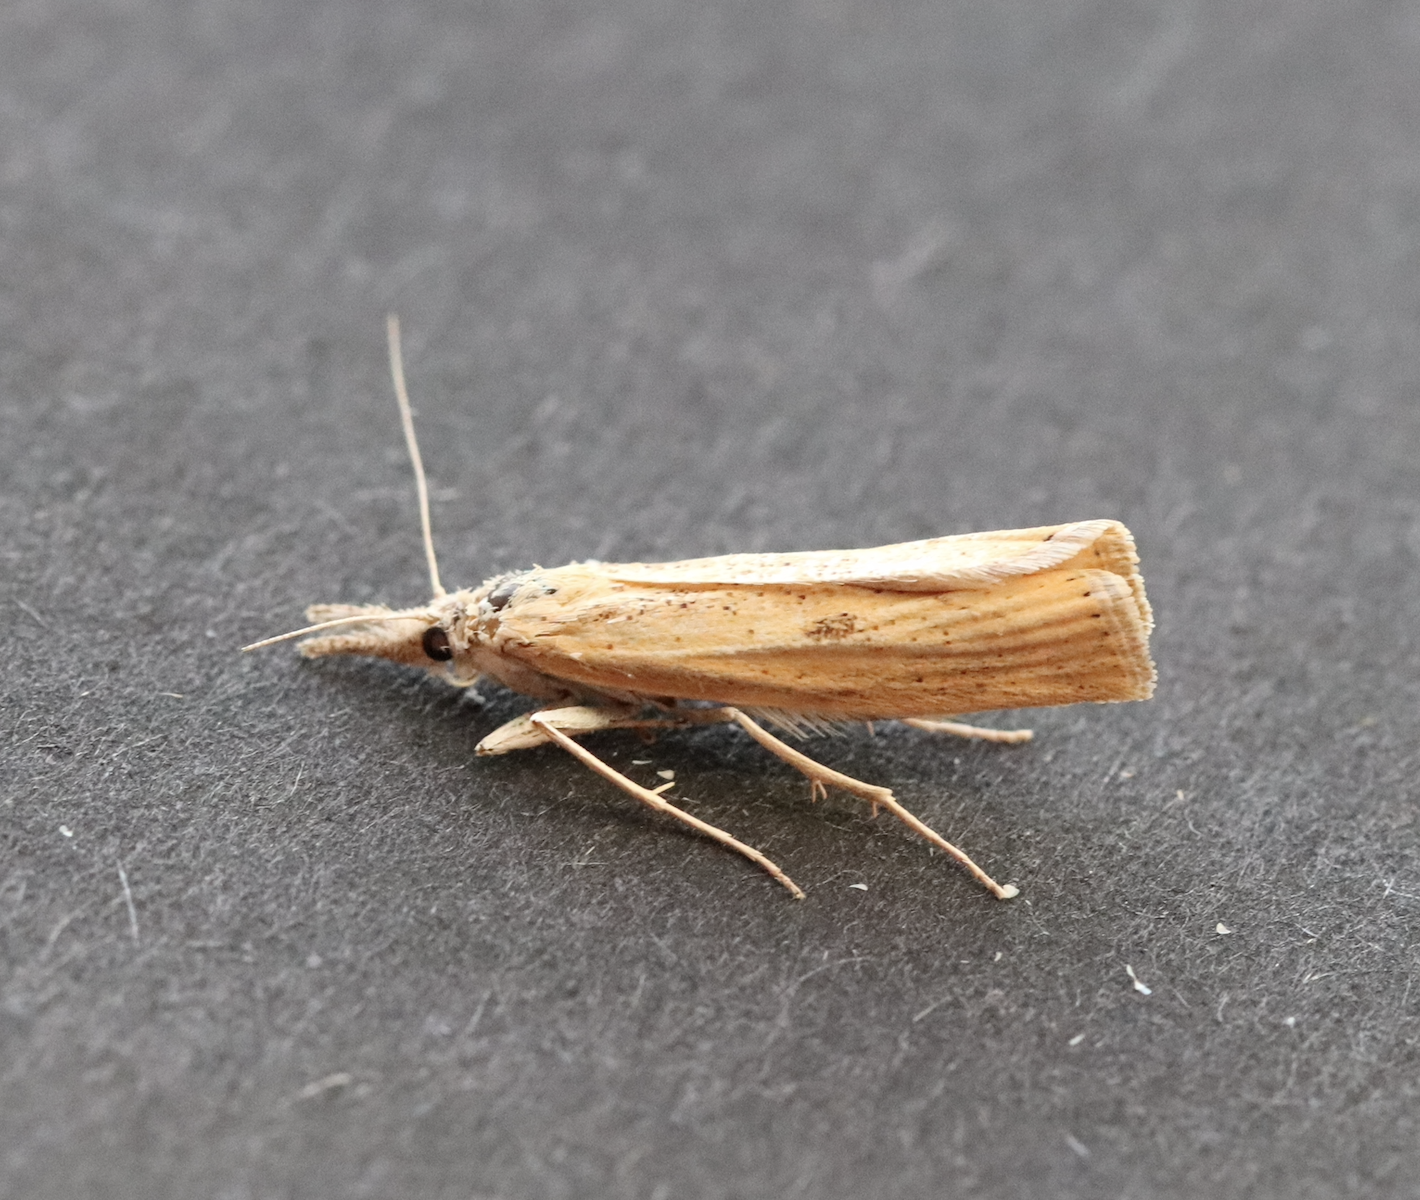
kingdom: Animalia
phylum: Arthropoda
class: Insecta
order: Lepidoptera
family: Crambidae
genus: Agriphila
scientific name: Agriphila inquinatella
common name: Barred grass-veneer
